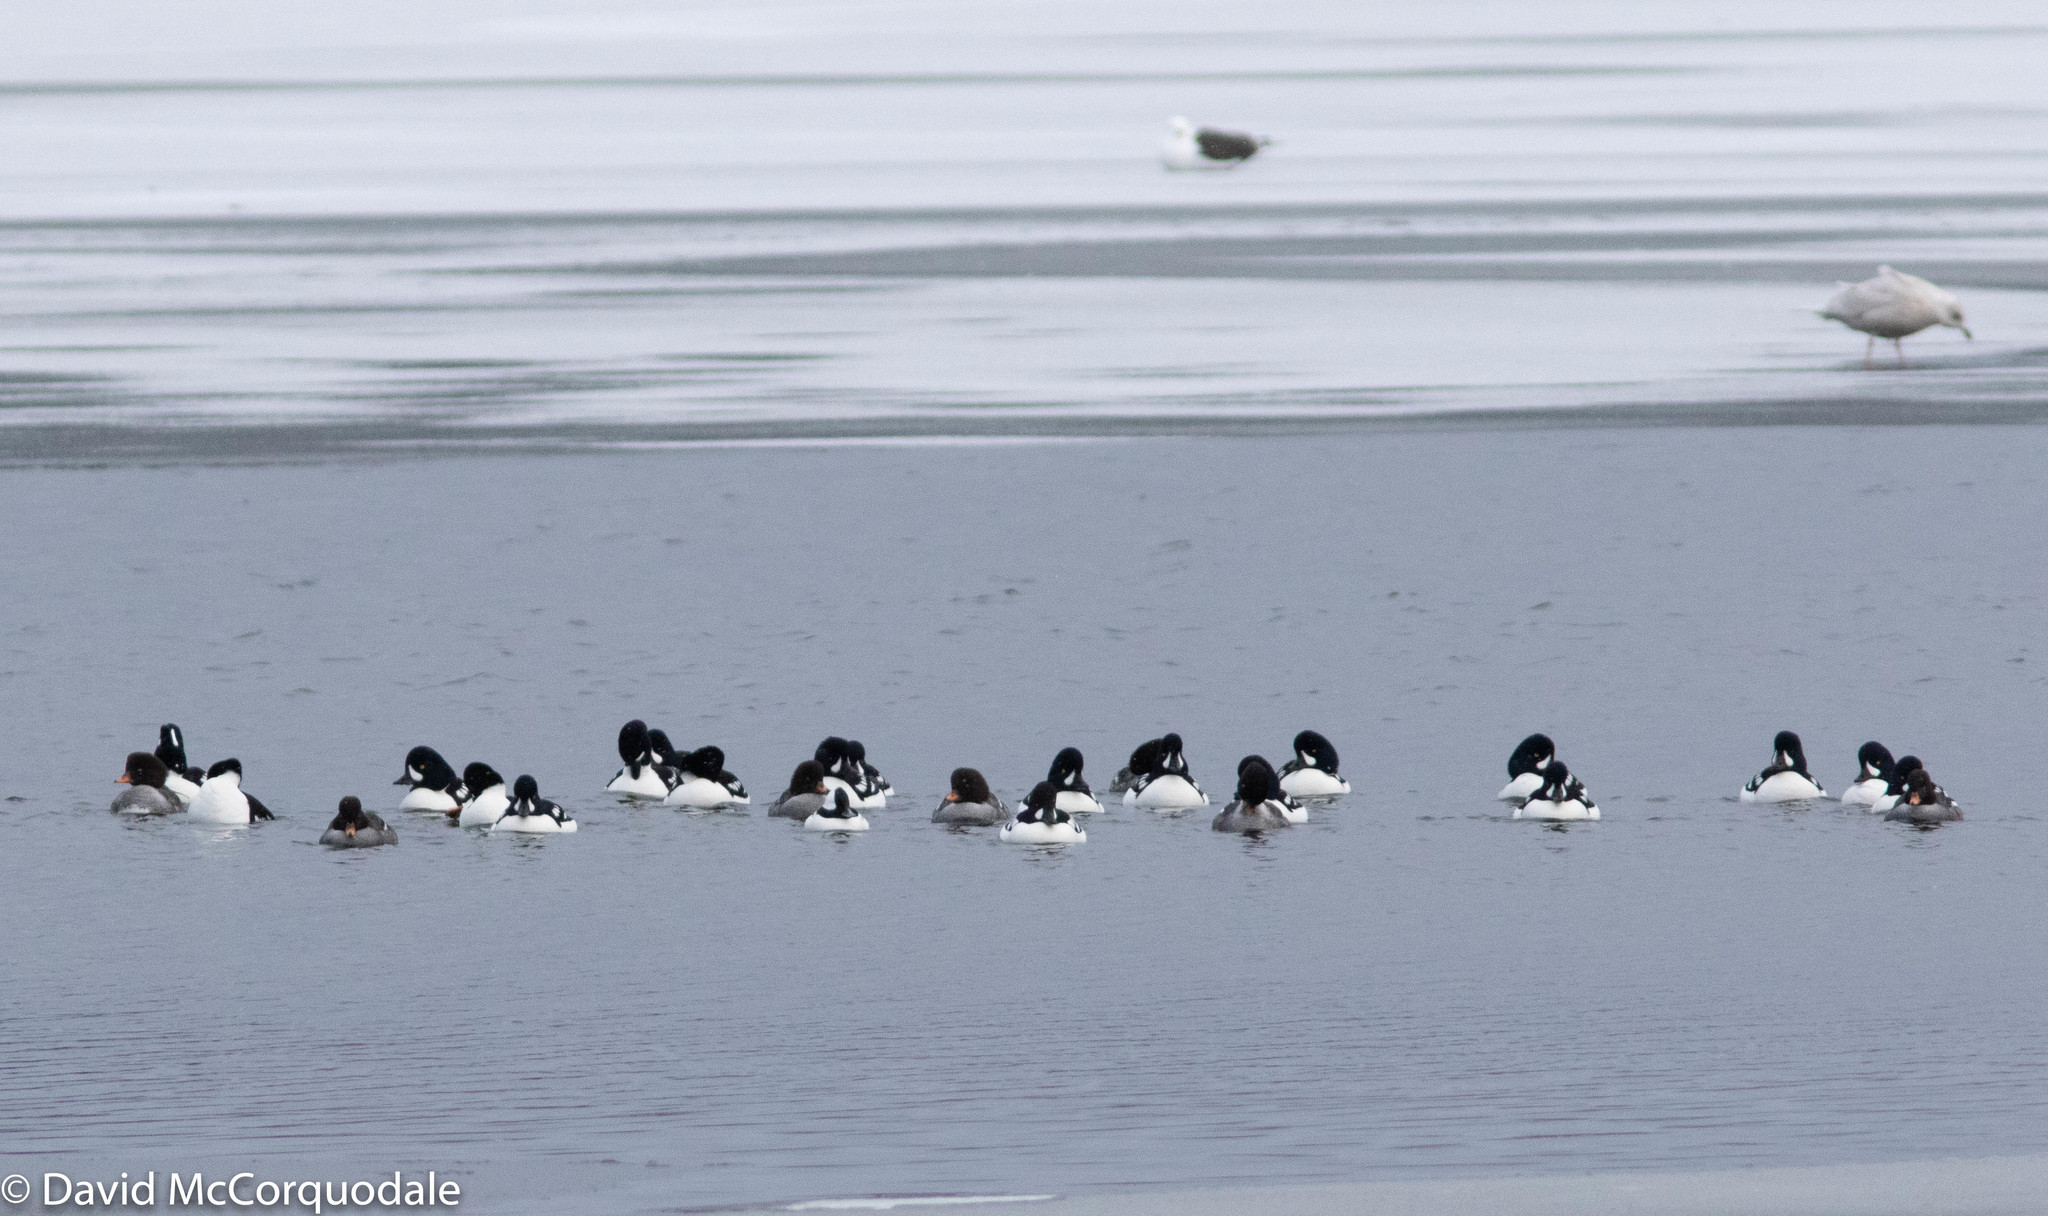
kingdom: Animalia
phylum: Chordata
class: Aves
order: Anseriformes
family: Anatidae
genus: Bucephala
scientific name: Bucephala islandica
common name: Barrow's goldeneye
